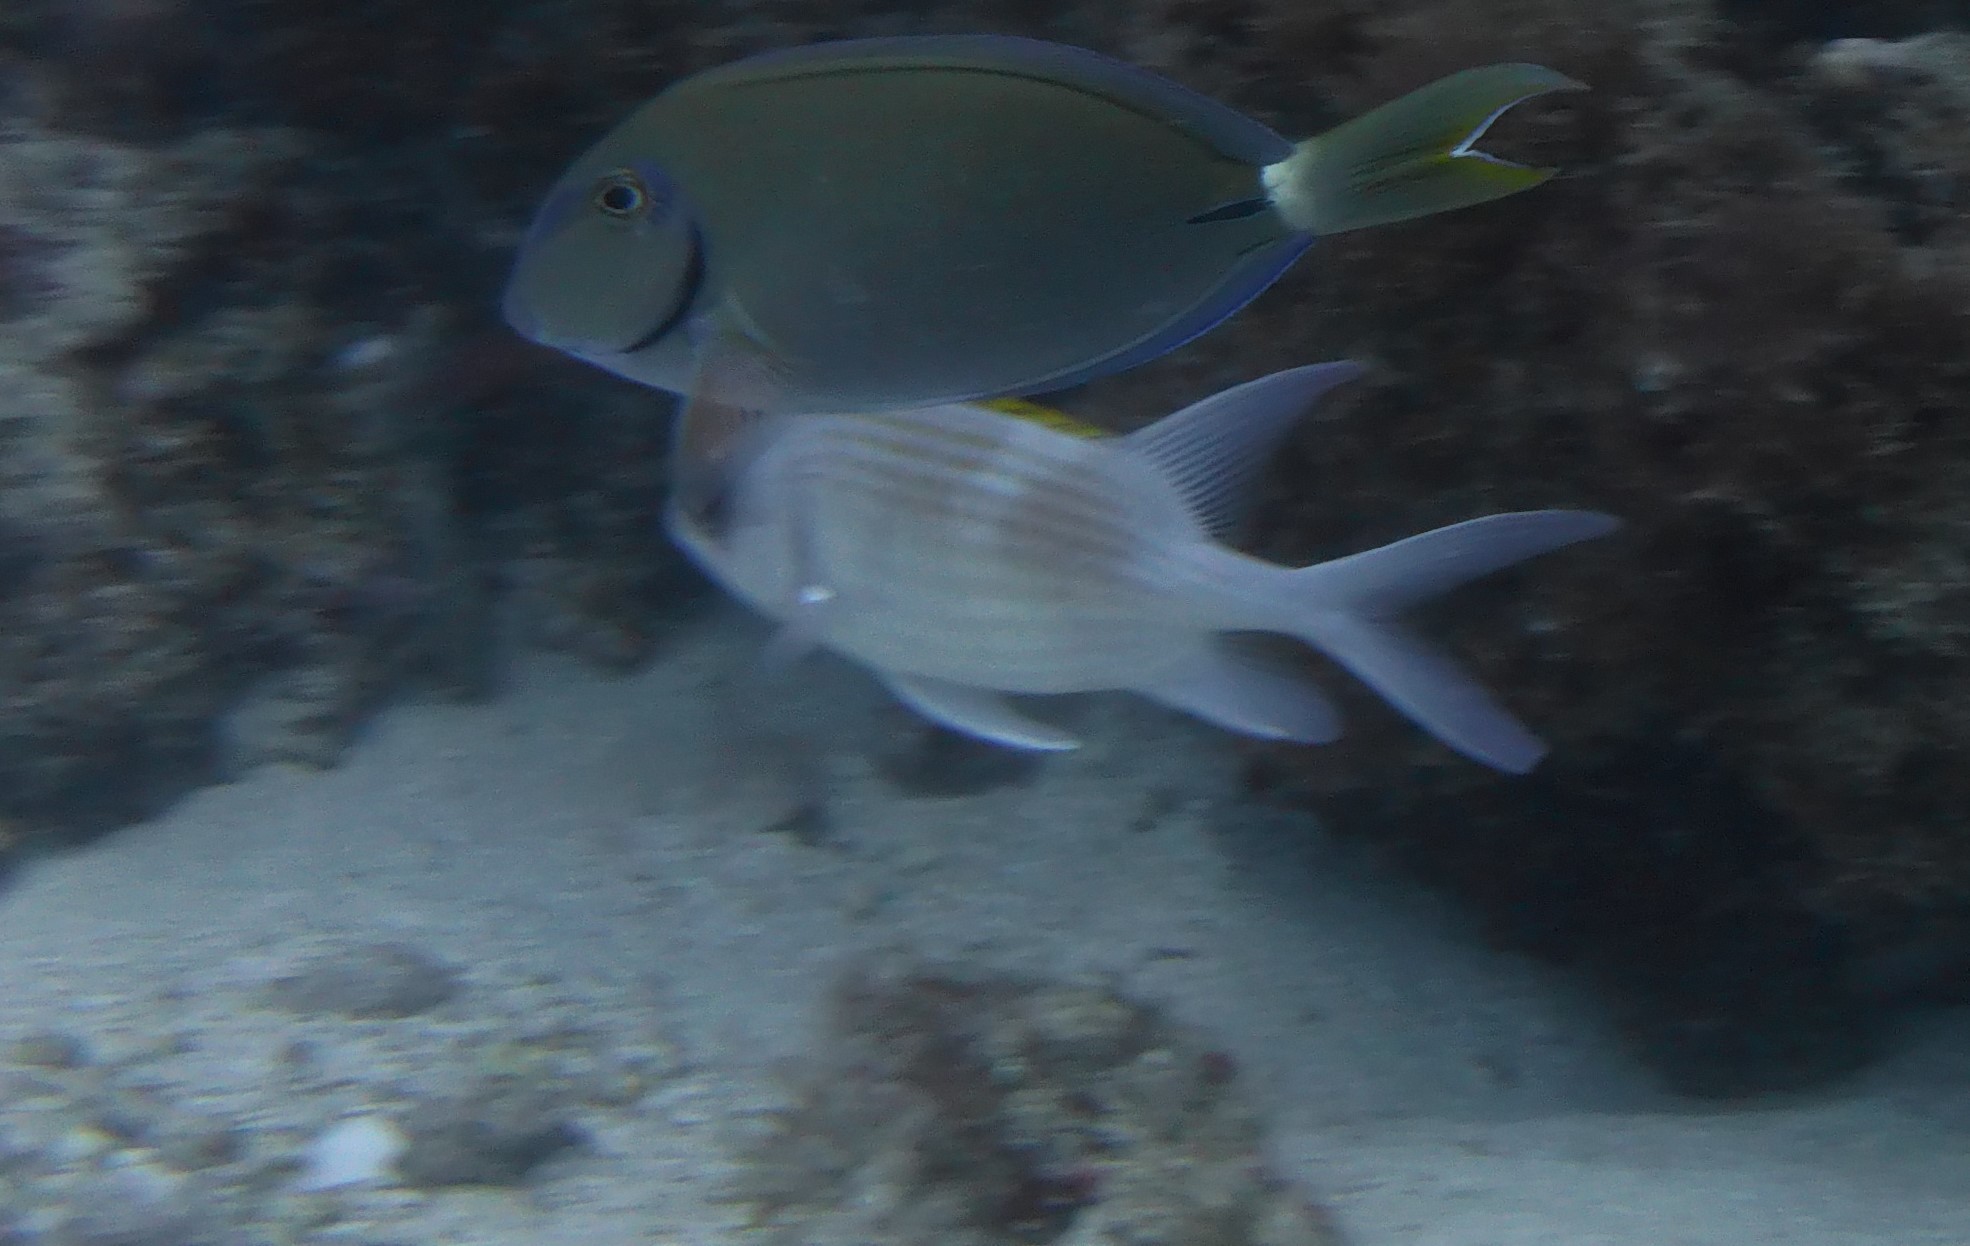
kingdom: Animalia
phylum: Chordata
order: Beryciformes
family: Holocentridae
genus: Holocentrus
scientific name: Holocentrus adscensionis
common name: Squirrelfish
